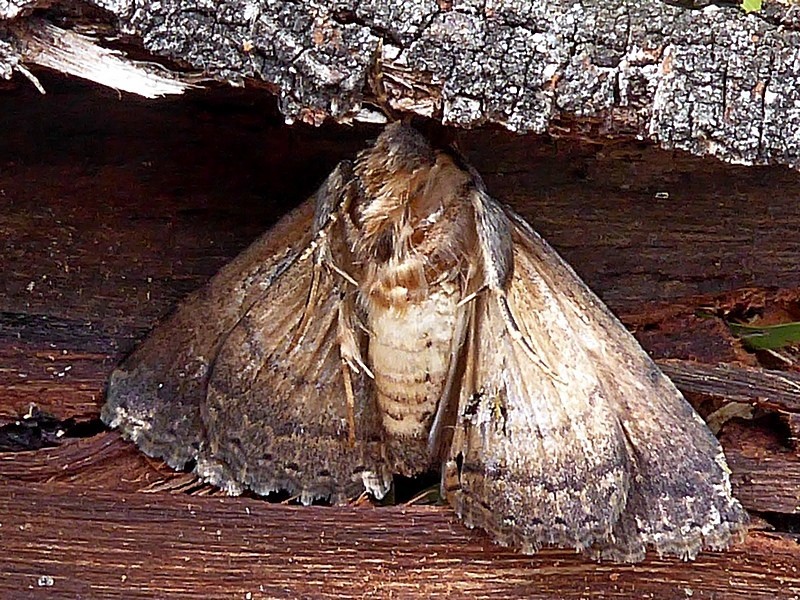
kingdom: Animalia
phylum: Arthropoda
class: Insecta
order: Lepidoptera
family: Erebidae
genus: Diatenes
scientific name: Diatenes aglossoides
